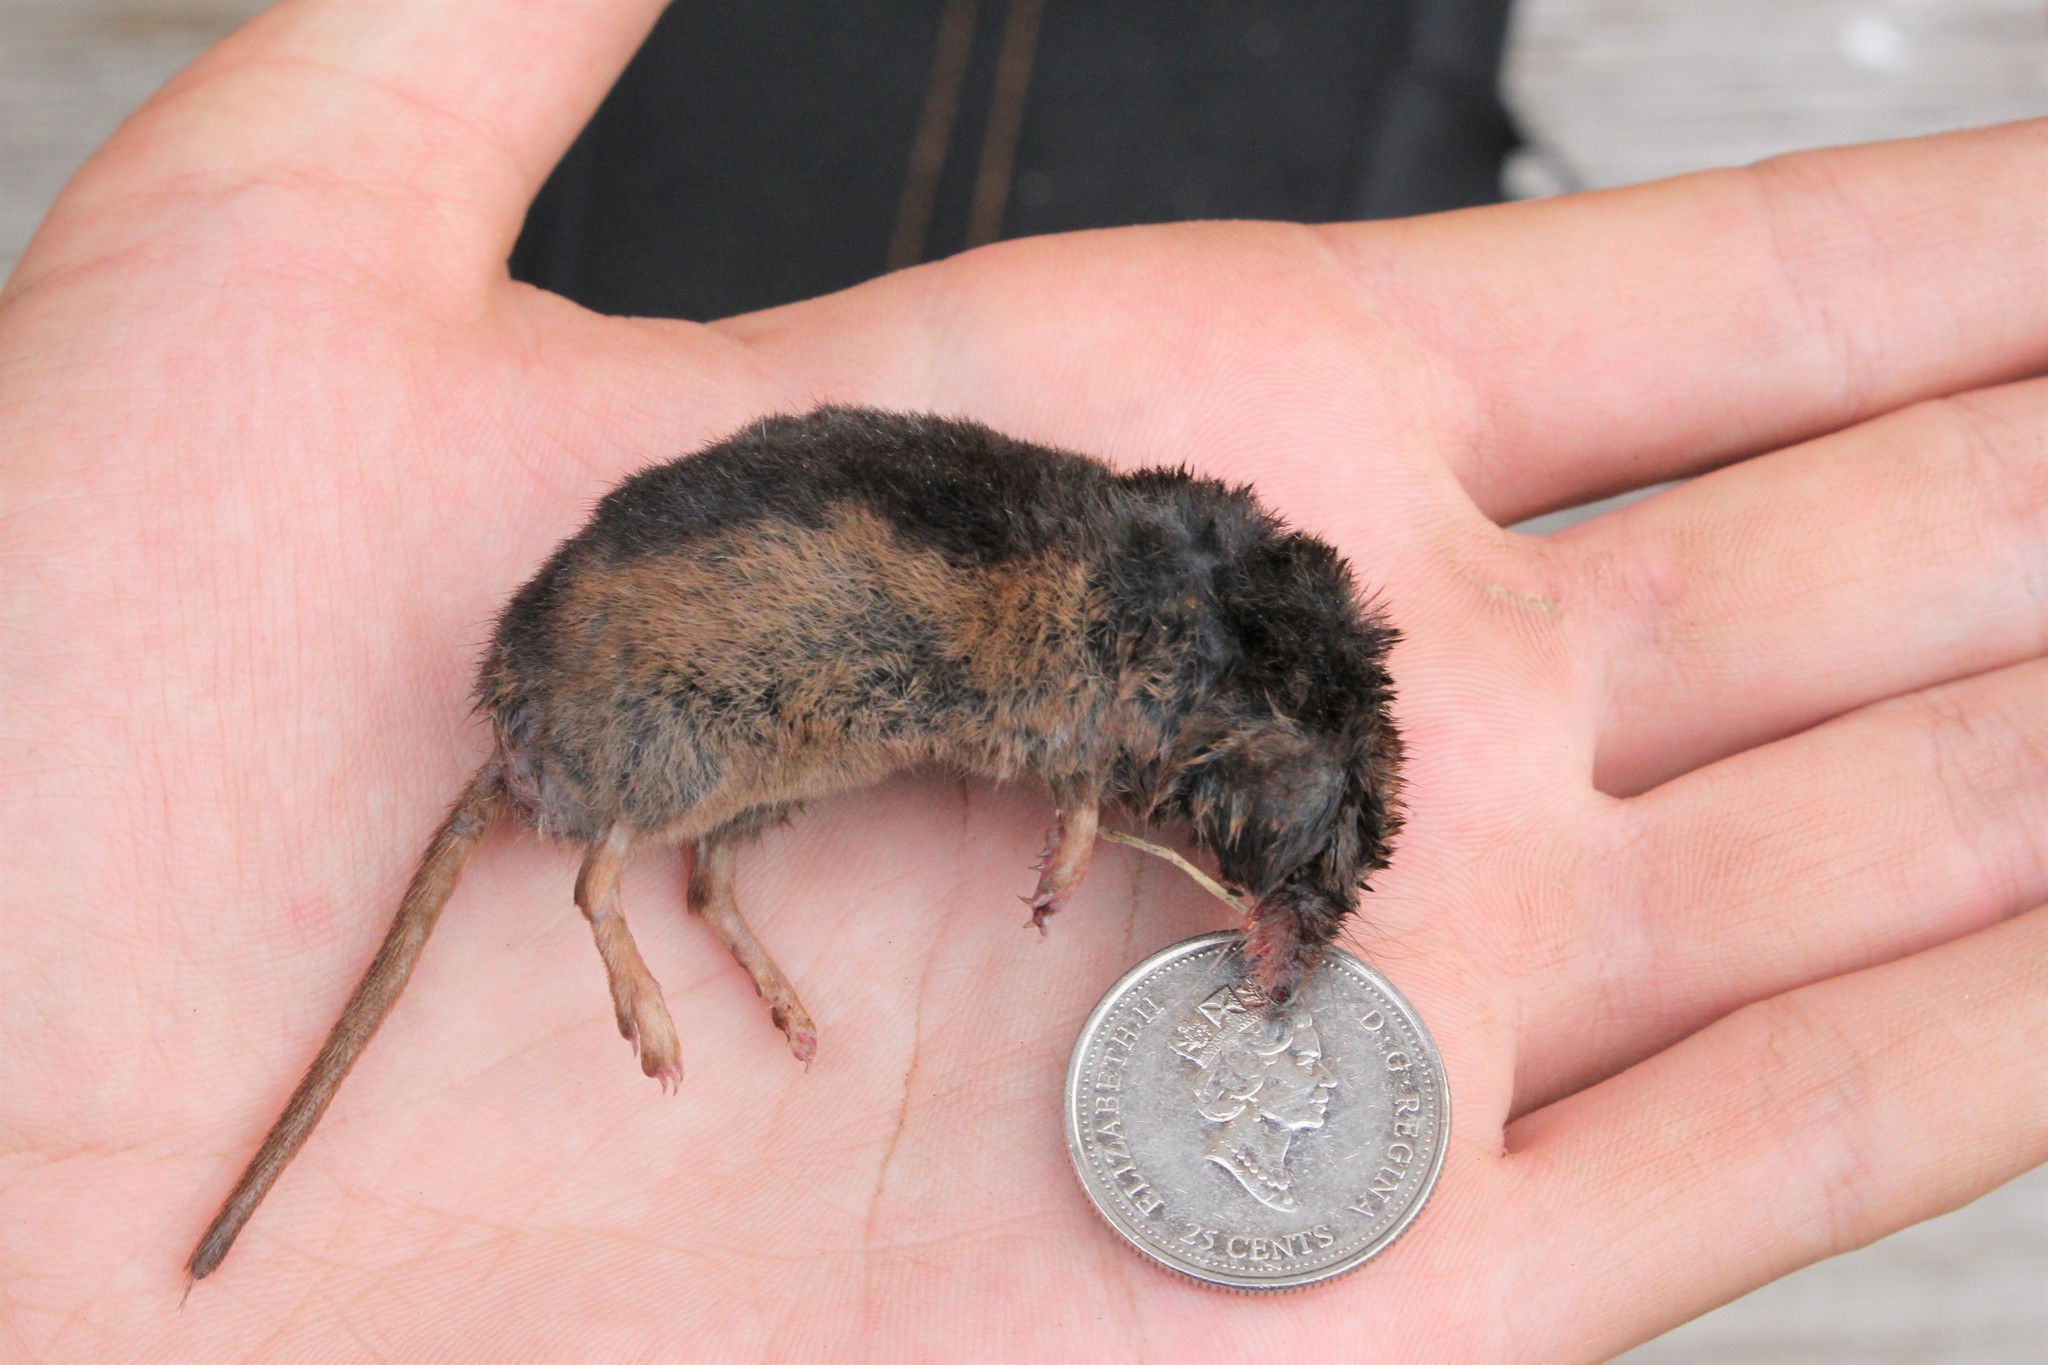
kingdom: Animalia
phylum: Chordata
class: Mammalia
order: Soricomorpha
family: Soricidae
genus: Sorex
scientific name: Sorex arcticus
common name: Arctic shrew
